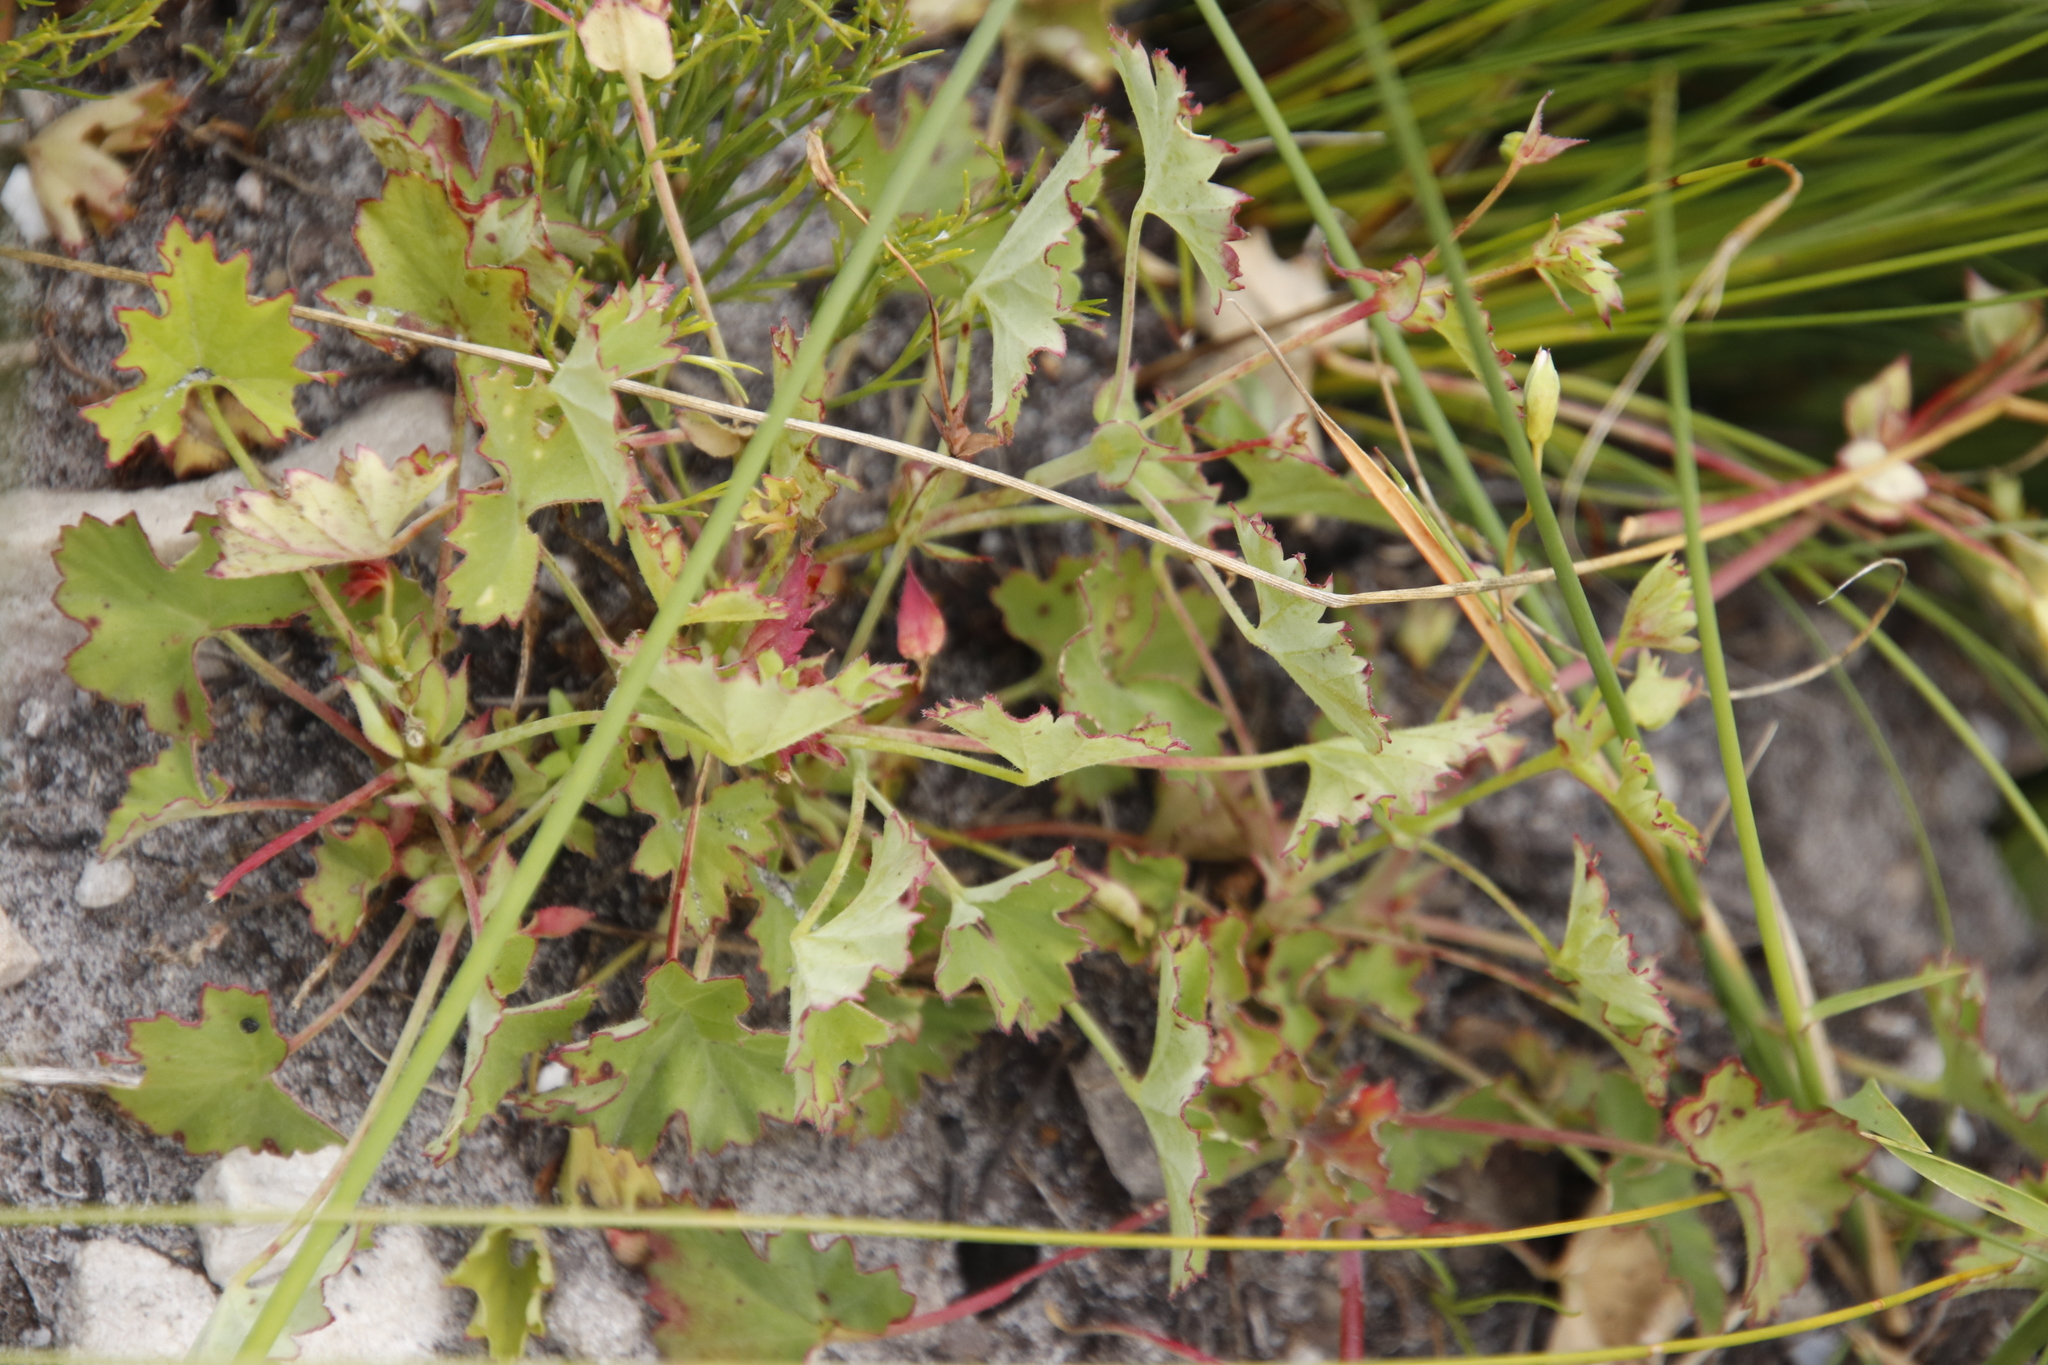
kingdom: Plantae
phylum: Tracheophyta
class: Magnoliopsida
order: Geraniales
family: Geraniaceae
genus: Pelargonium
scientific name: Pelargonium patulum
